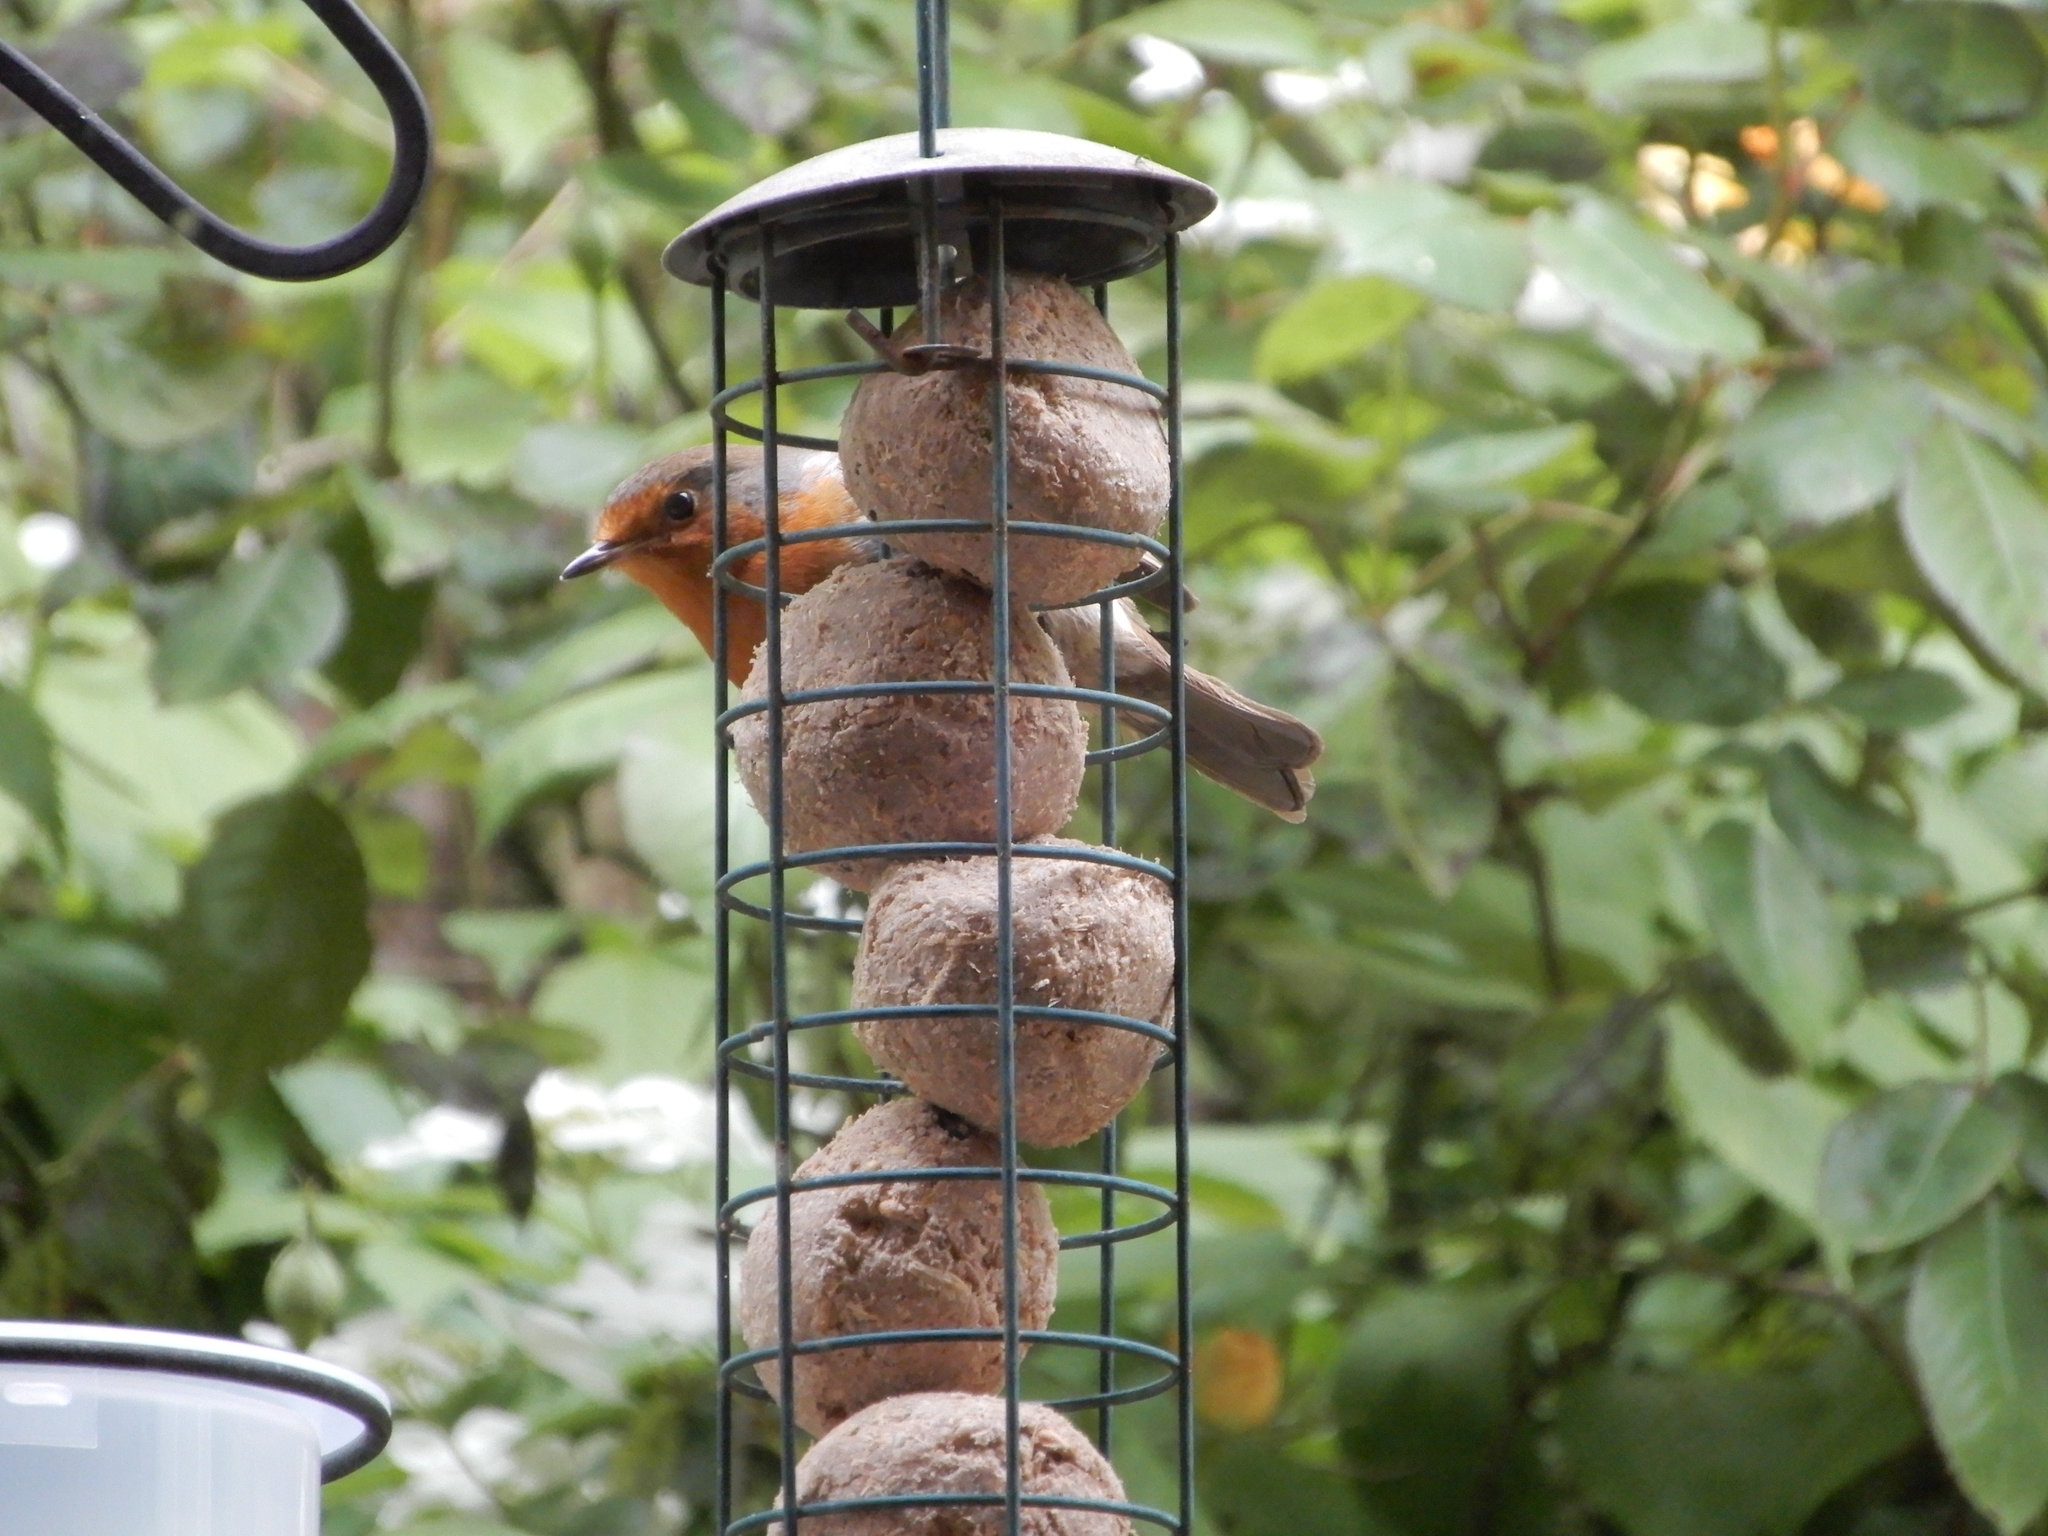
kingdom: Animalia
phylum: Chordata
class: Aves
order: Passeriformes
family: Muscicapidae
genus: Erithacus
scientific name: Erithacus rubecula
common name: European robin
